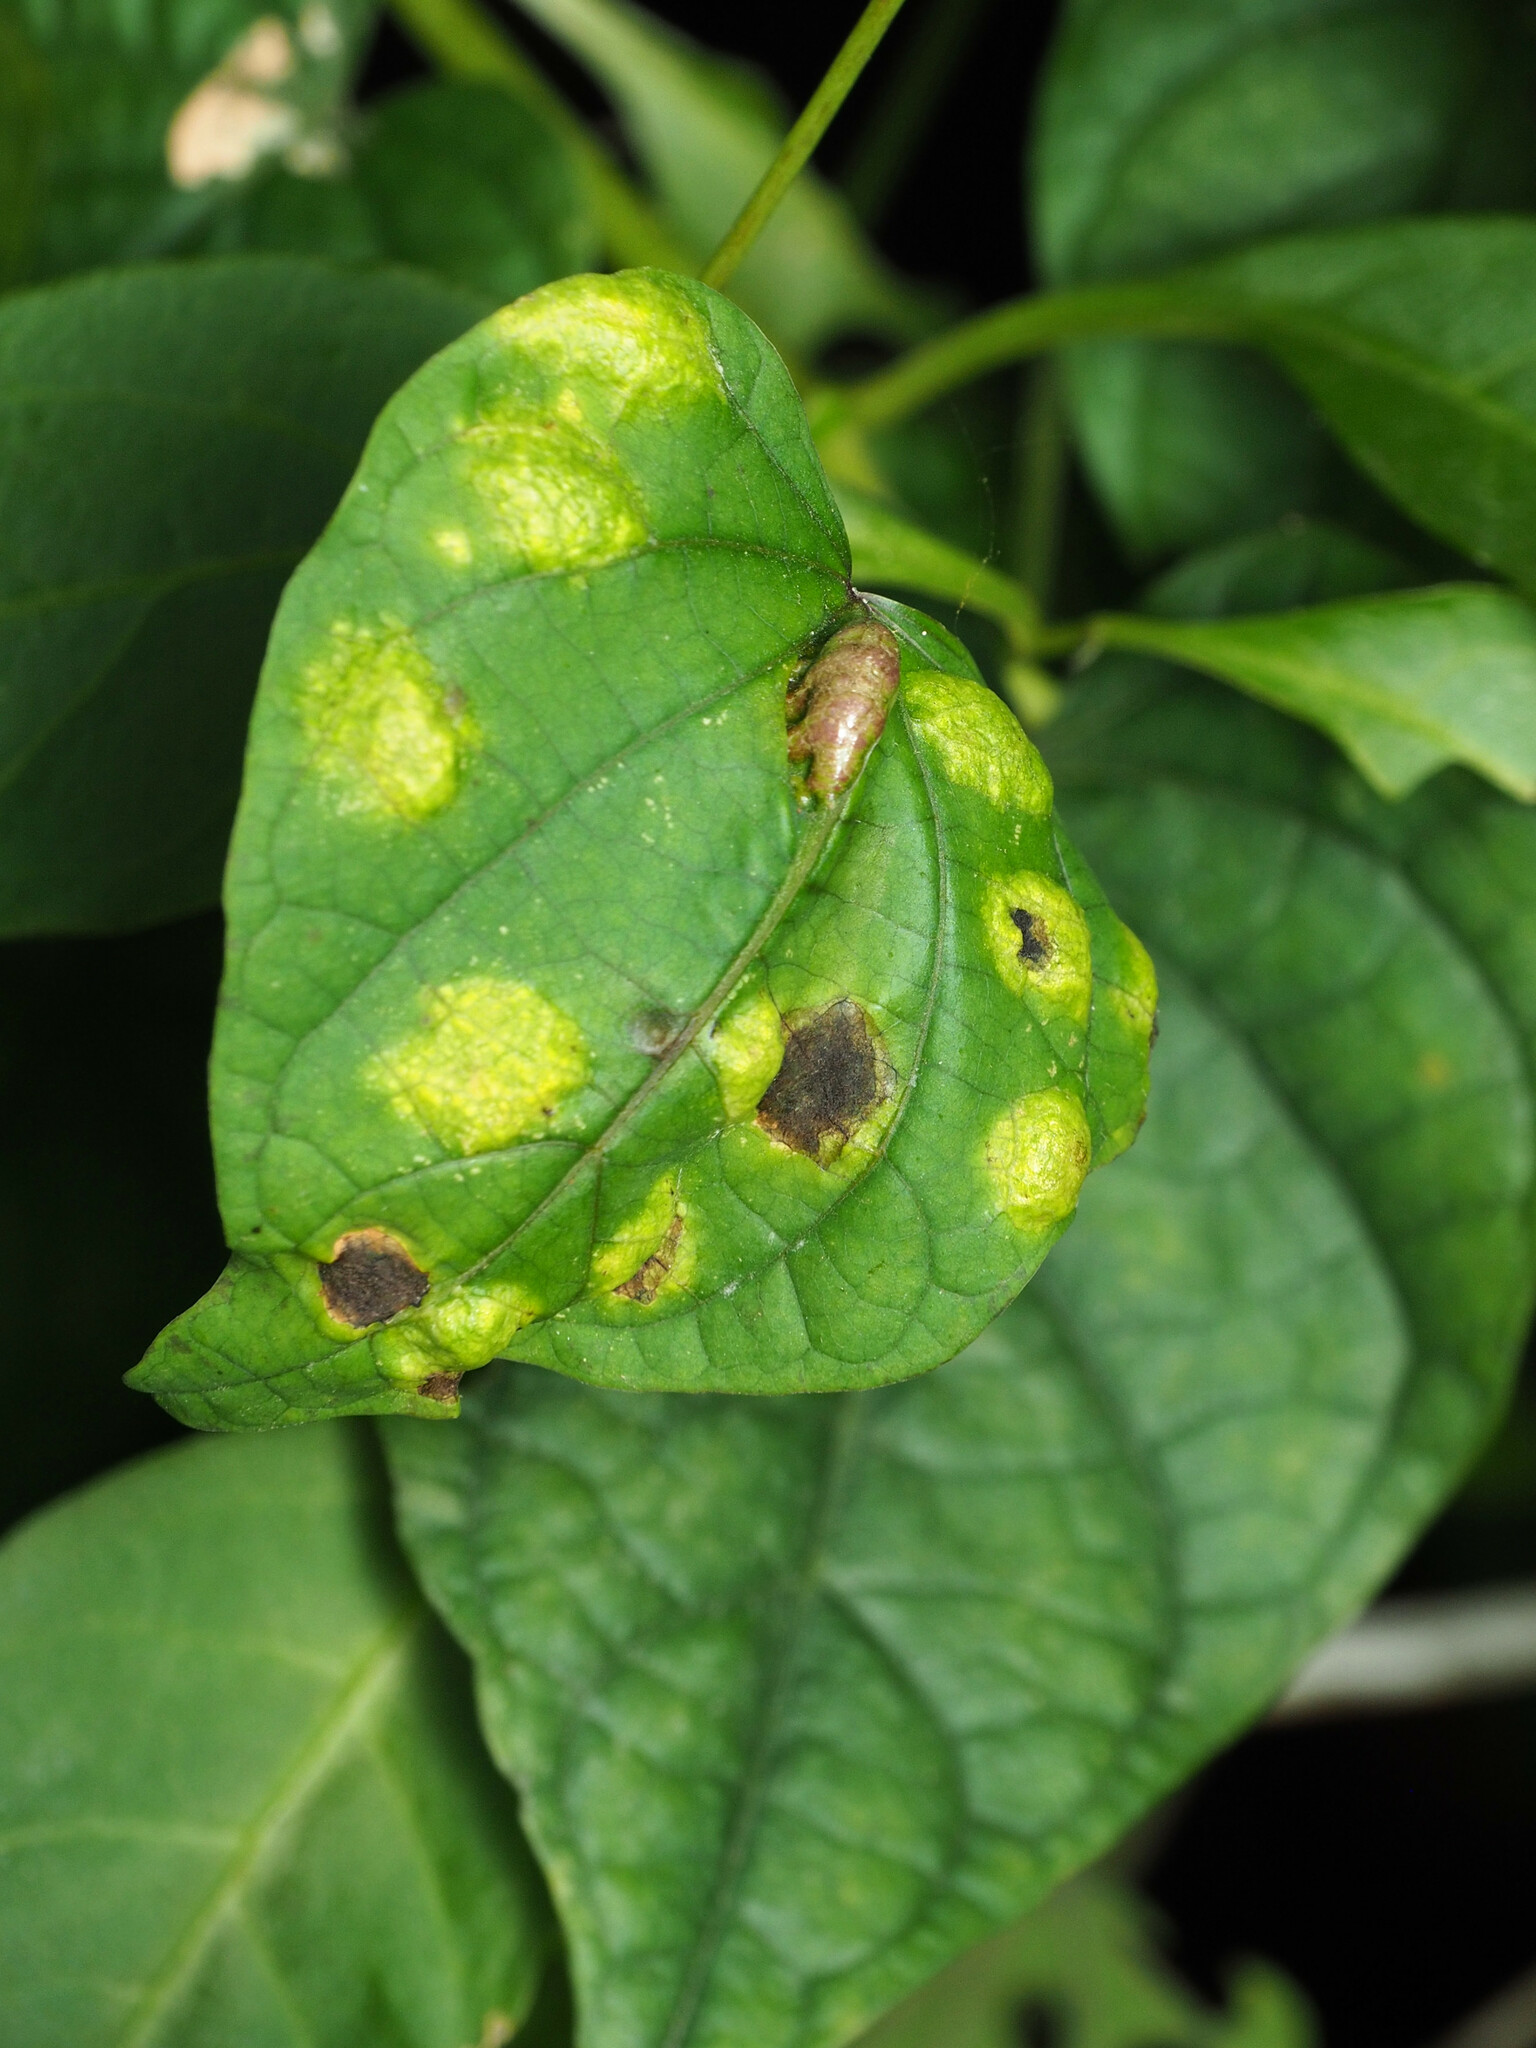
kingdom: Chromista
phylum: Oomycota
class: Peronosporea
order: Albuginales
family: Albuginaceae
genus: Albugo
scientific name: Albugo ipomoeae-panduratae
